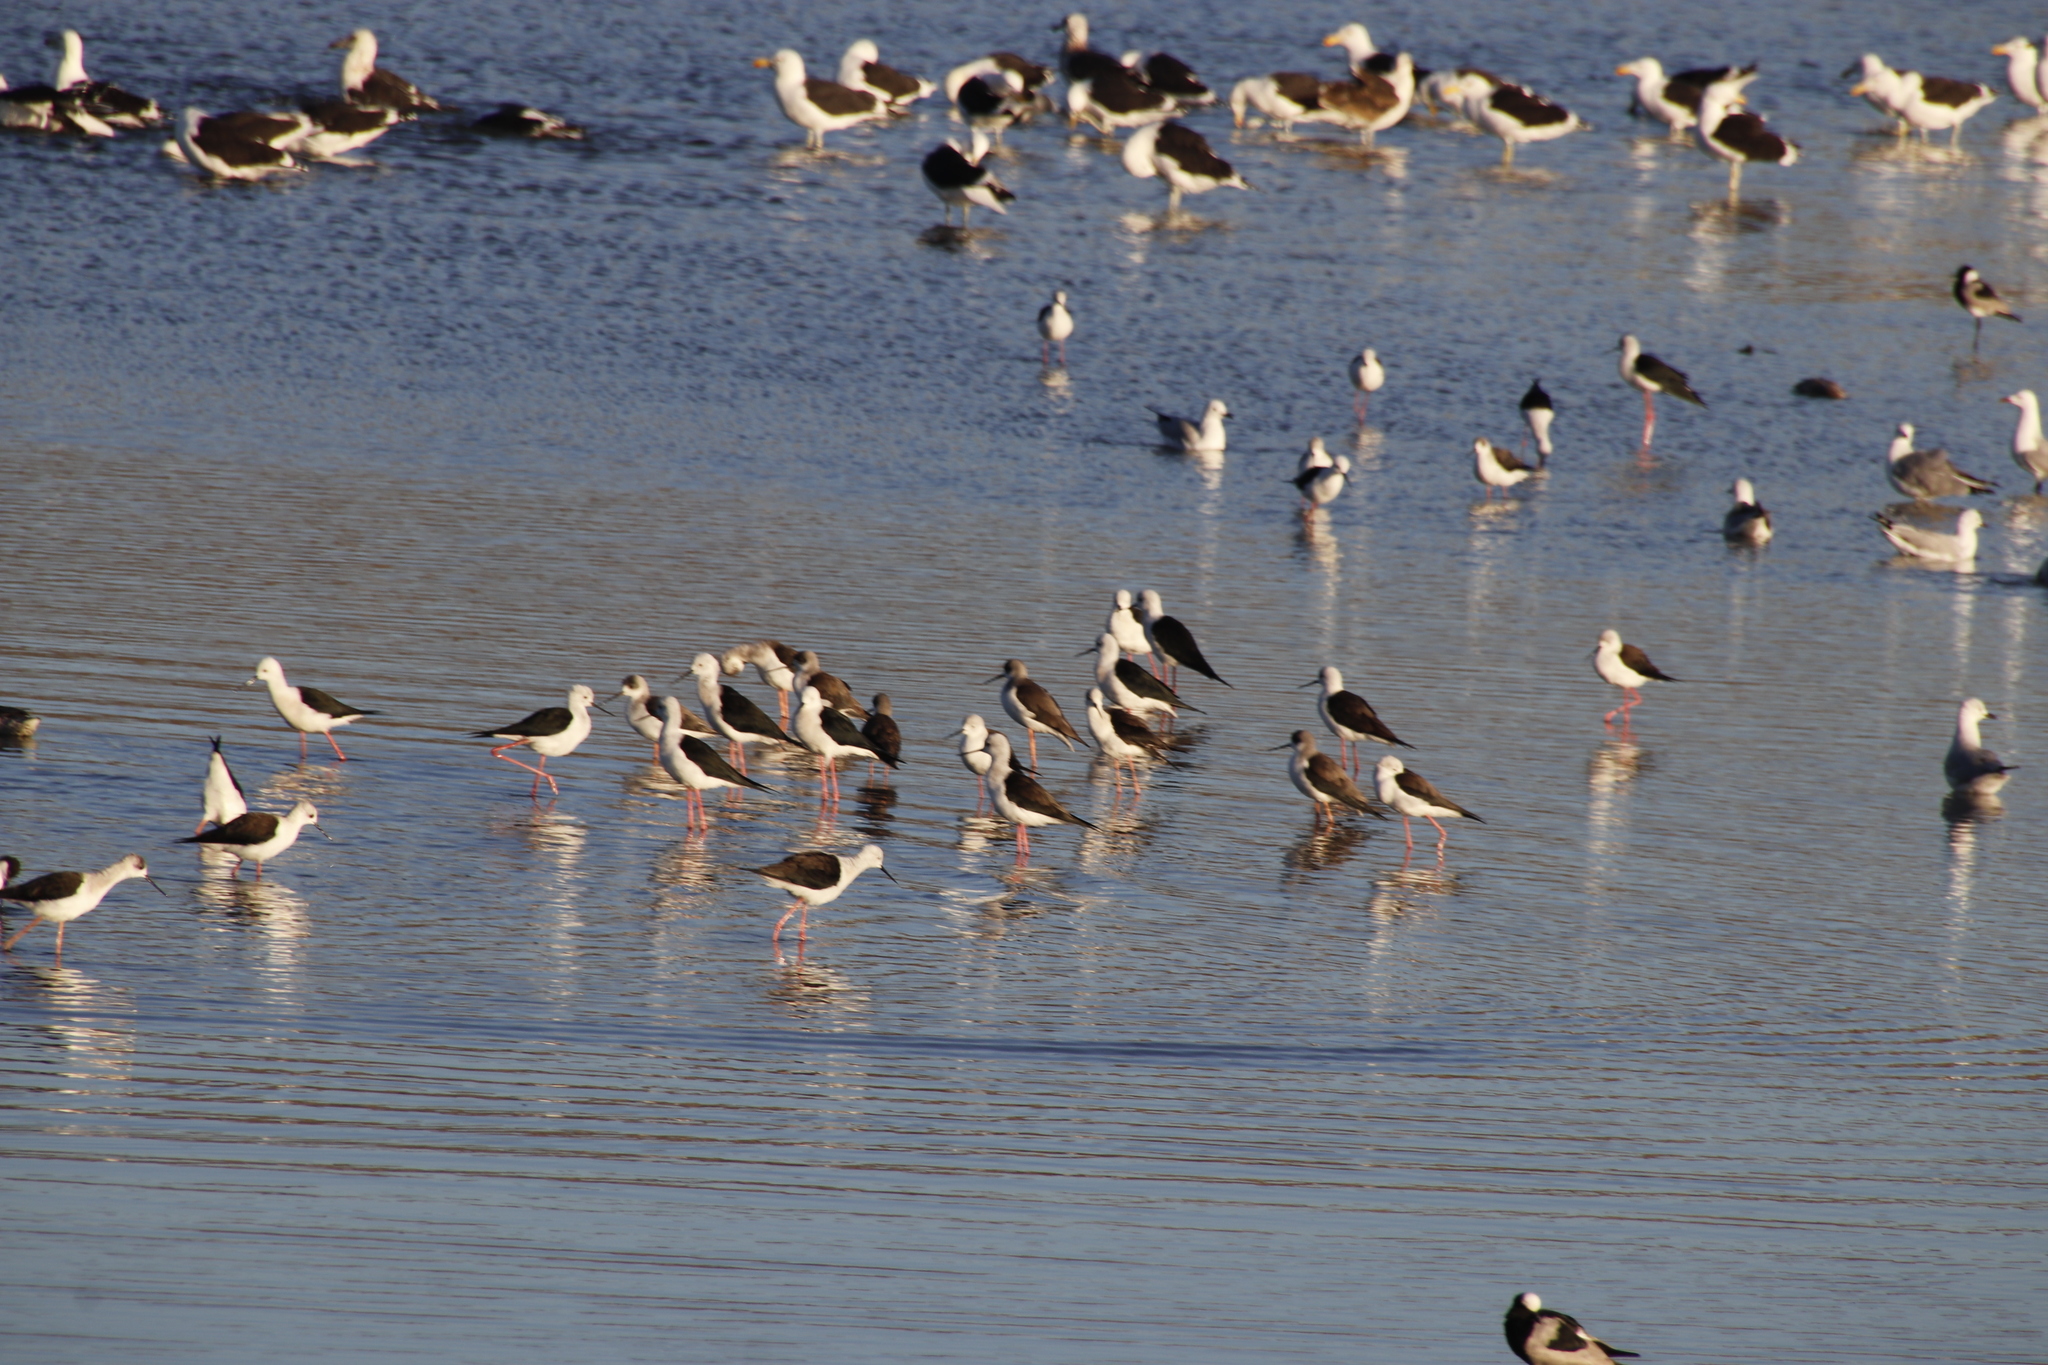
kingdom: Animalia
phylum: Chordata
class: Aves
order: Charadriiformes
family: Recurvirostridae
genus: Himantopus
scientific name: Himantopus himantopus
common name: Black-winged stilt
